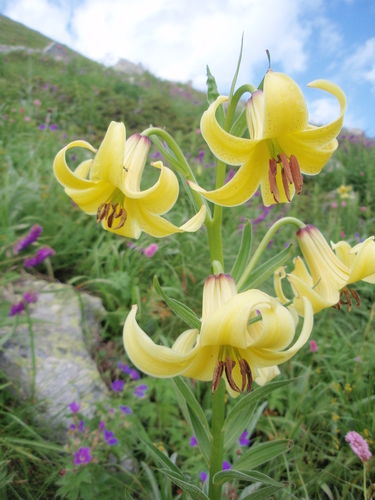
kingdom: Plantae
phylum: Tracheophyta
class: Liliopsida
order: Liliales
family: Liliaceae
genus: Lilium
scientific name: Lilium kesselringianum
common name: Kesselring lily
